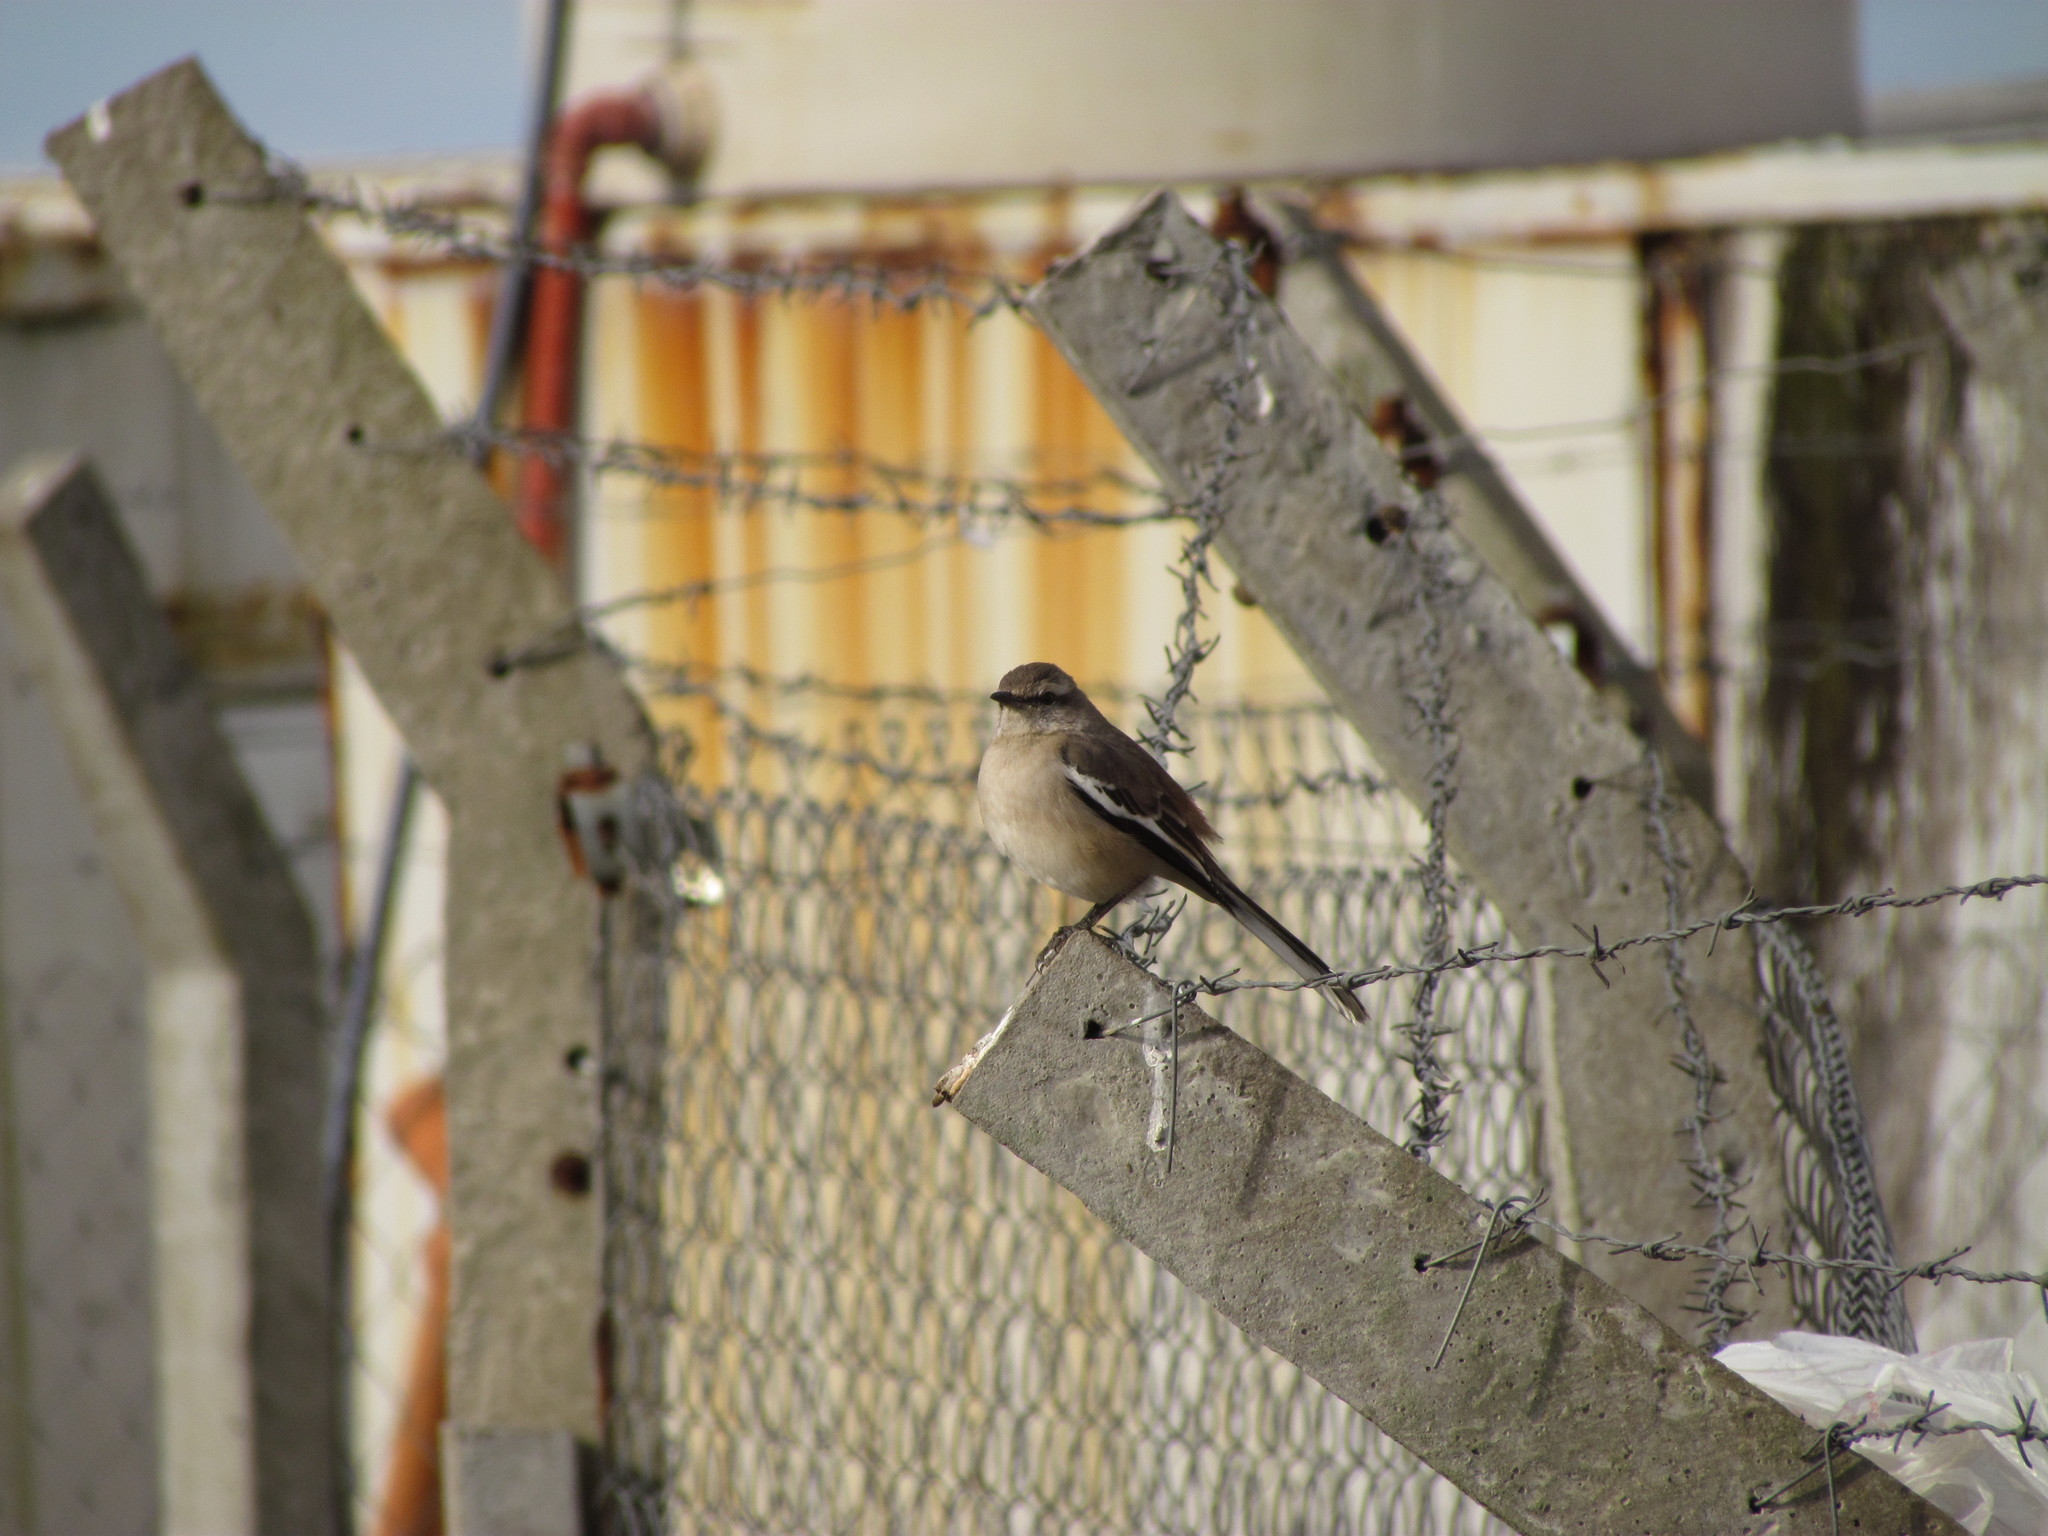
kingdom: Animalia
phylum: Chordata
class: Aves
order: Passeriformes
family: Mimidae
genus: Mimus
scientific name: Mimus triurus
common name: White-banded mockingbird
